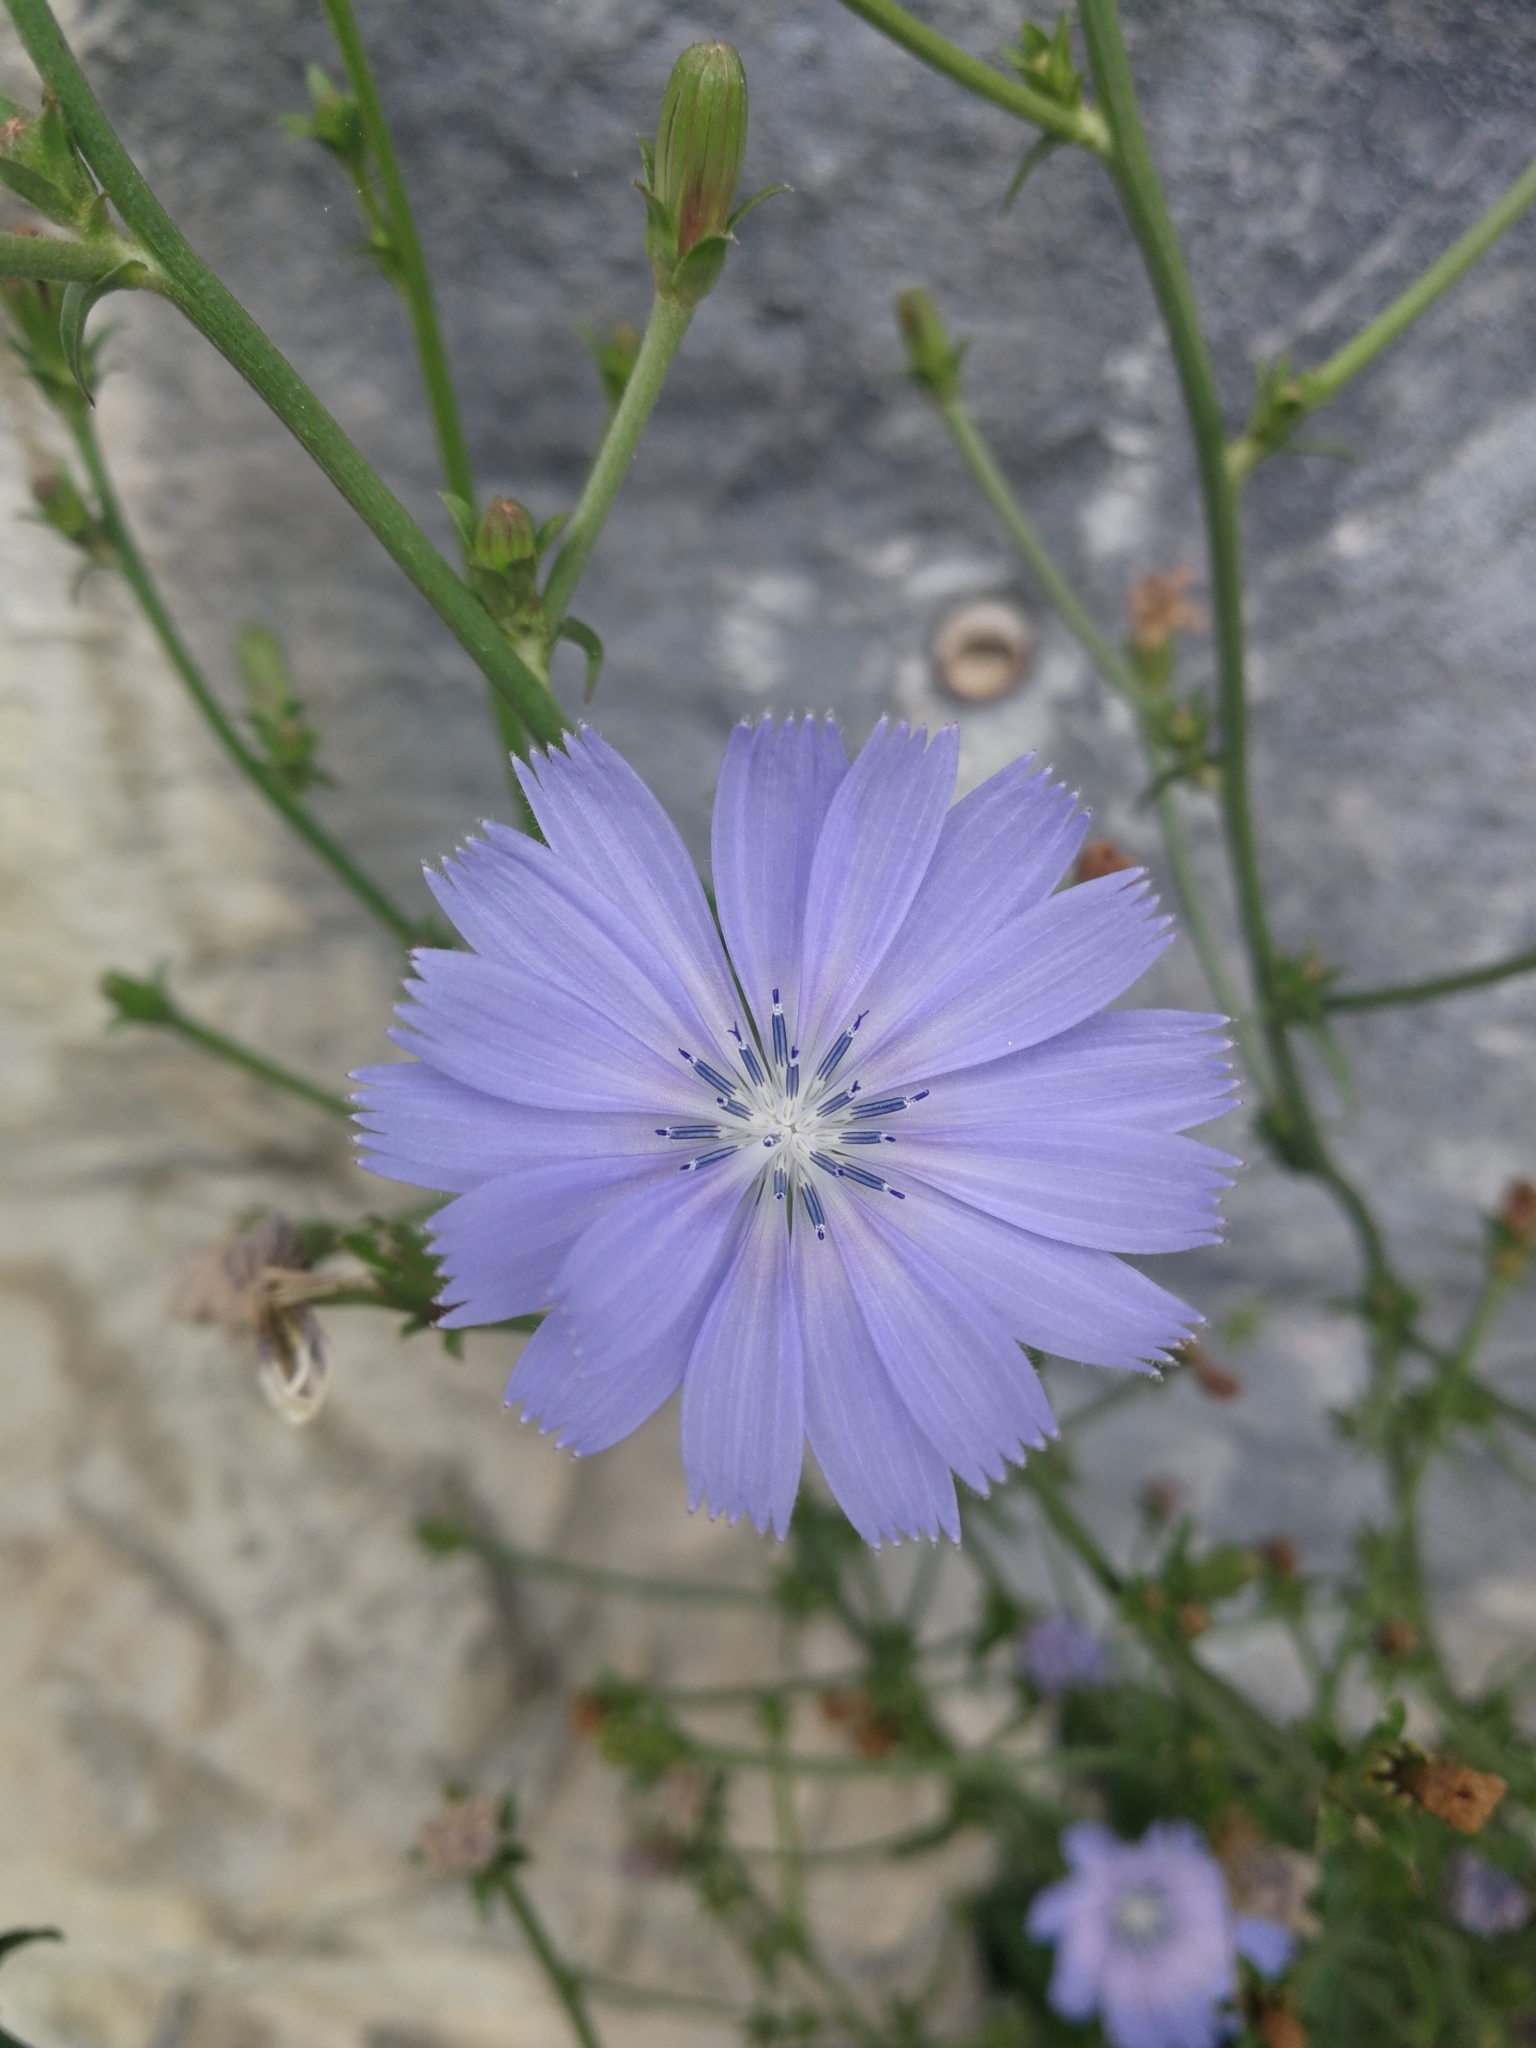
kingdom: Plantae
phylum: Tracheophyta
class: Magnoliopsida
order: Asterales
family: Asteraceae
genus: Cichorium
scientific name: Cichorium intybus
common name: Chicory
